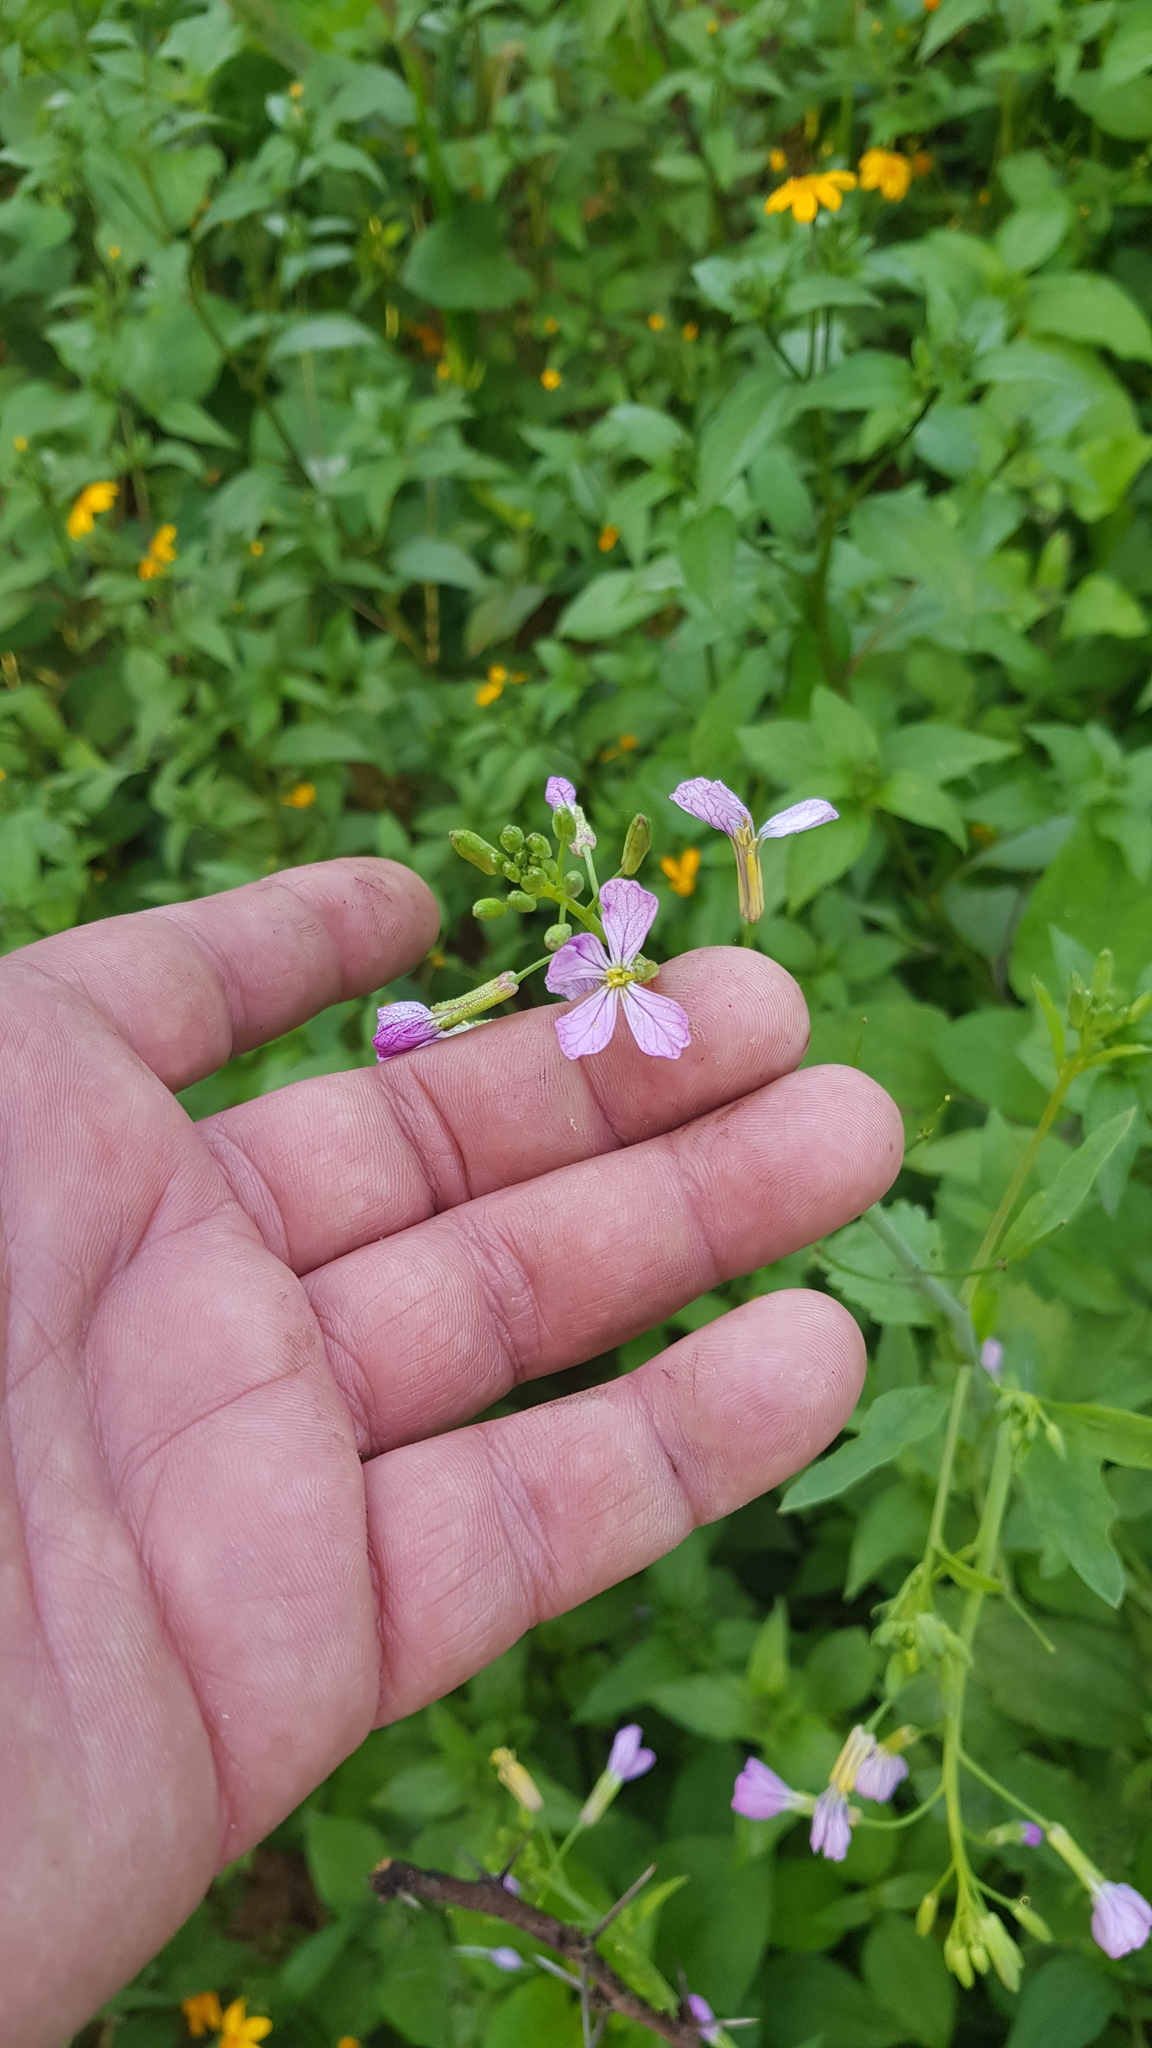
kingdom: Plantae
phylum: Tracheophyta
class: Magnoliopsida
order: Brassicales
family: Brassicaceae
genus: Raphanus
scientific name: Raphanus sativus
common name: Cultivated radish
